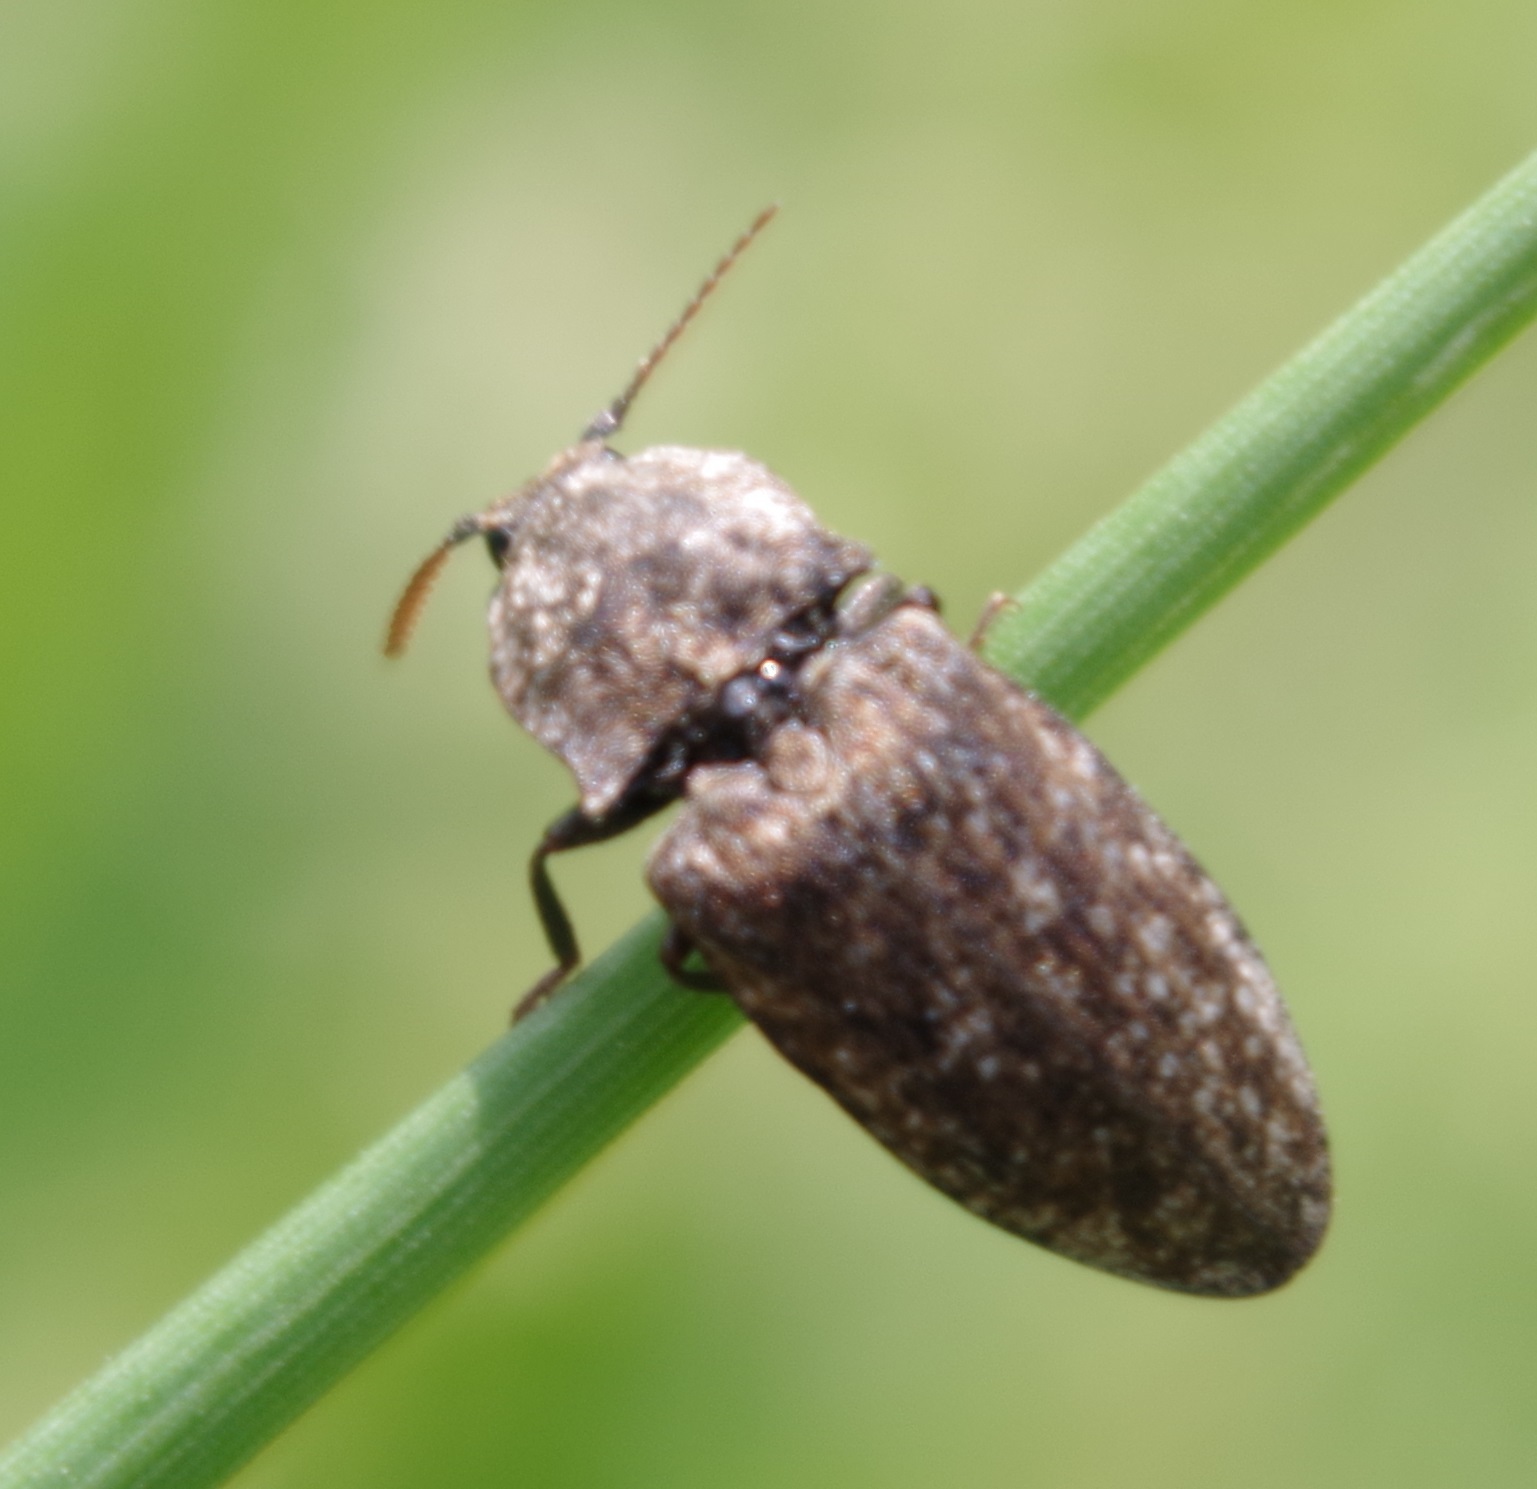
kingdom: Animalia
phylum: Arthropoda
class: Insecta
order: Coleoptera
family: Elateridae
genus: Agrypnus
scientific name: Agrypnus murinus
